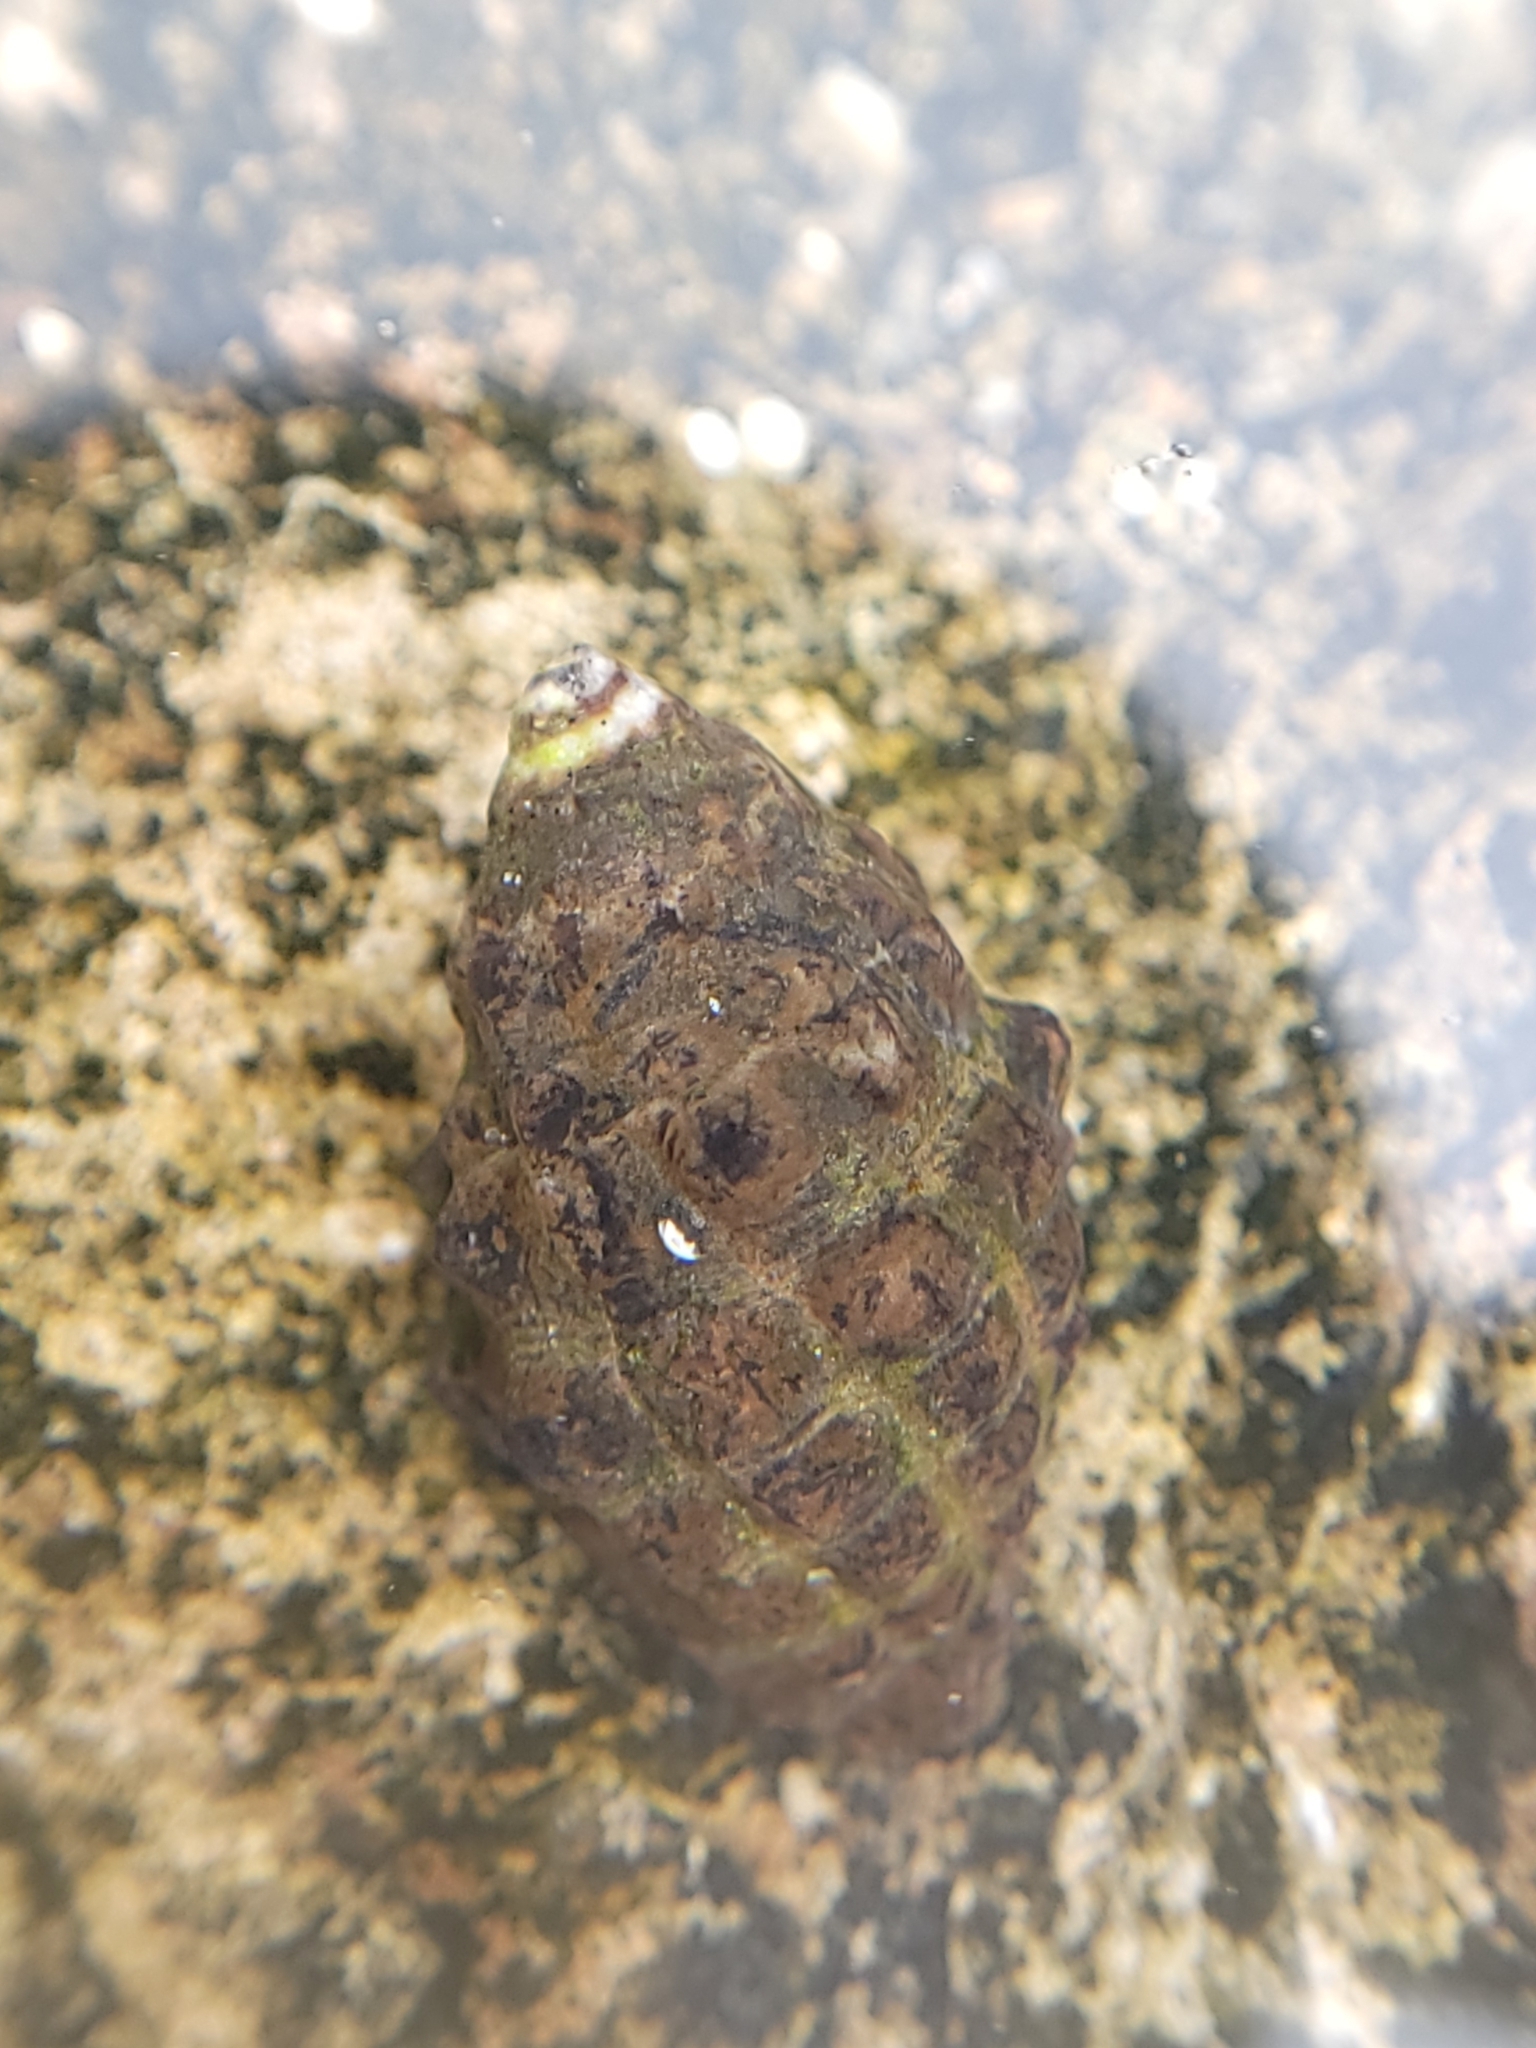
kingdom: Animalia
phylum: Mollusca
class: Gastropoda
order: Neogastropoda
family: Muricidae
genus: Tenguella
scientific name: Tenguella granulata
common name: Granular drupe
